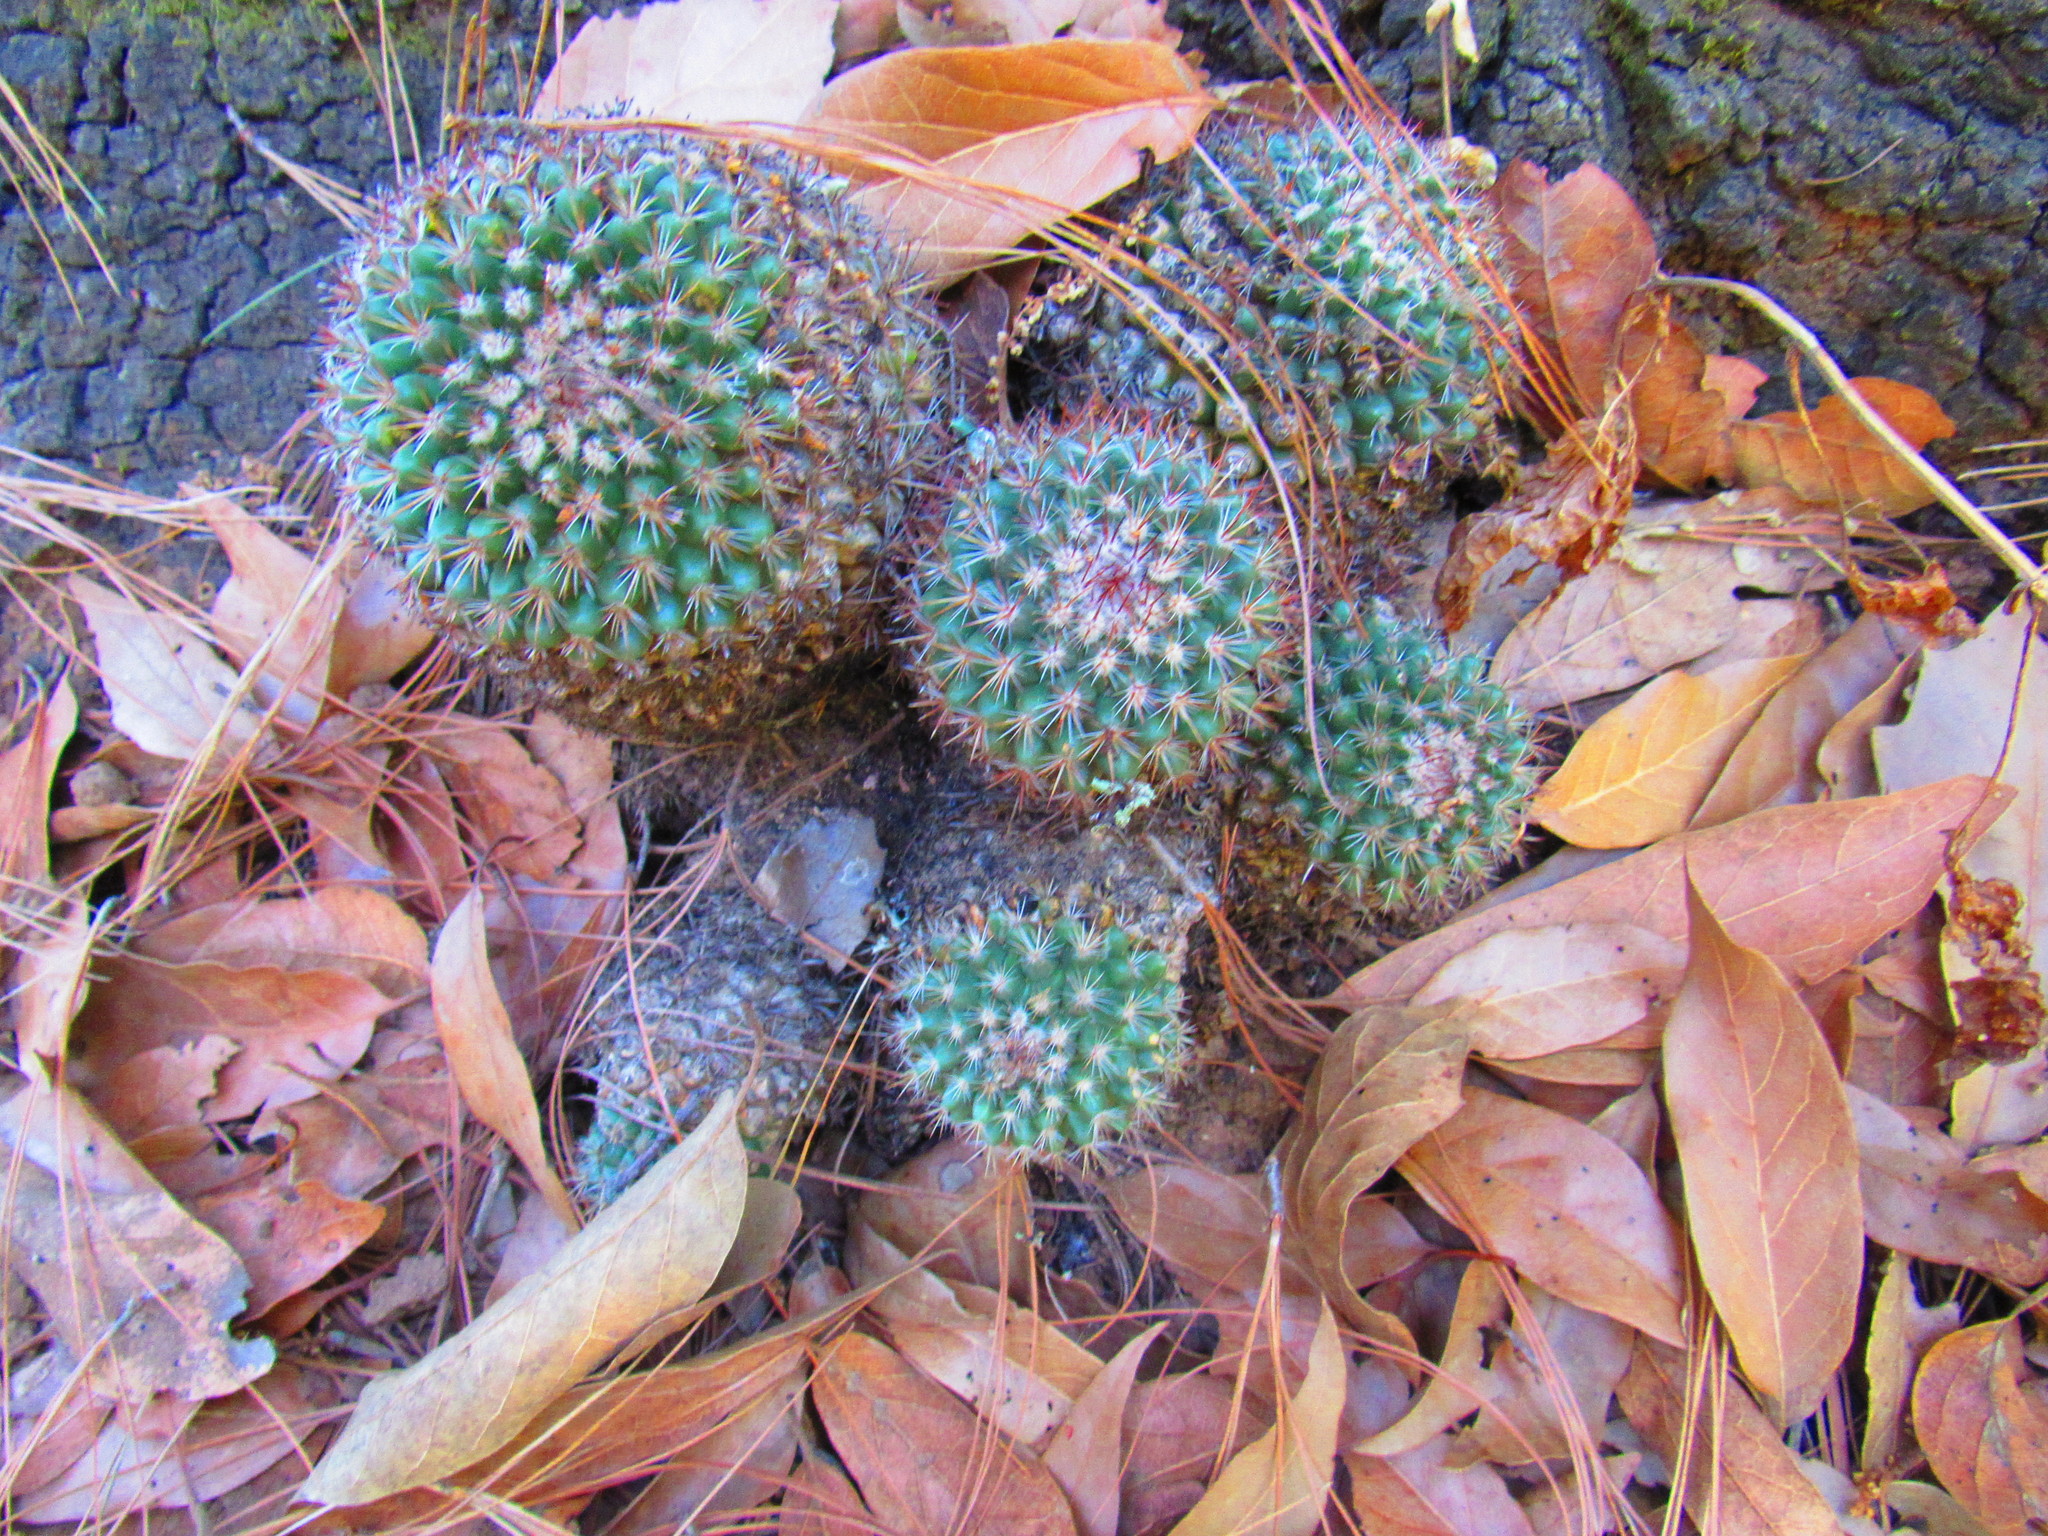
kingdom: Plantae
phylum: Tracheophyta
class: Magnoliopsida
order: Caryophyllales
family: Cactaceae
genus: Mammillaria
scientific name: Mammillaria rhodantha
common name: Rainbow pincushion
